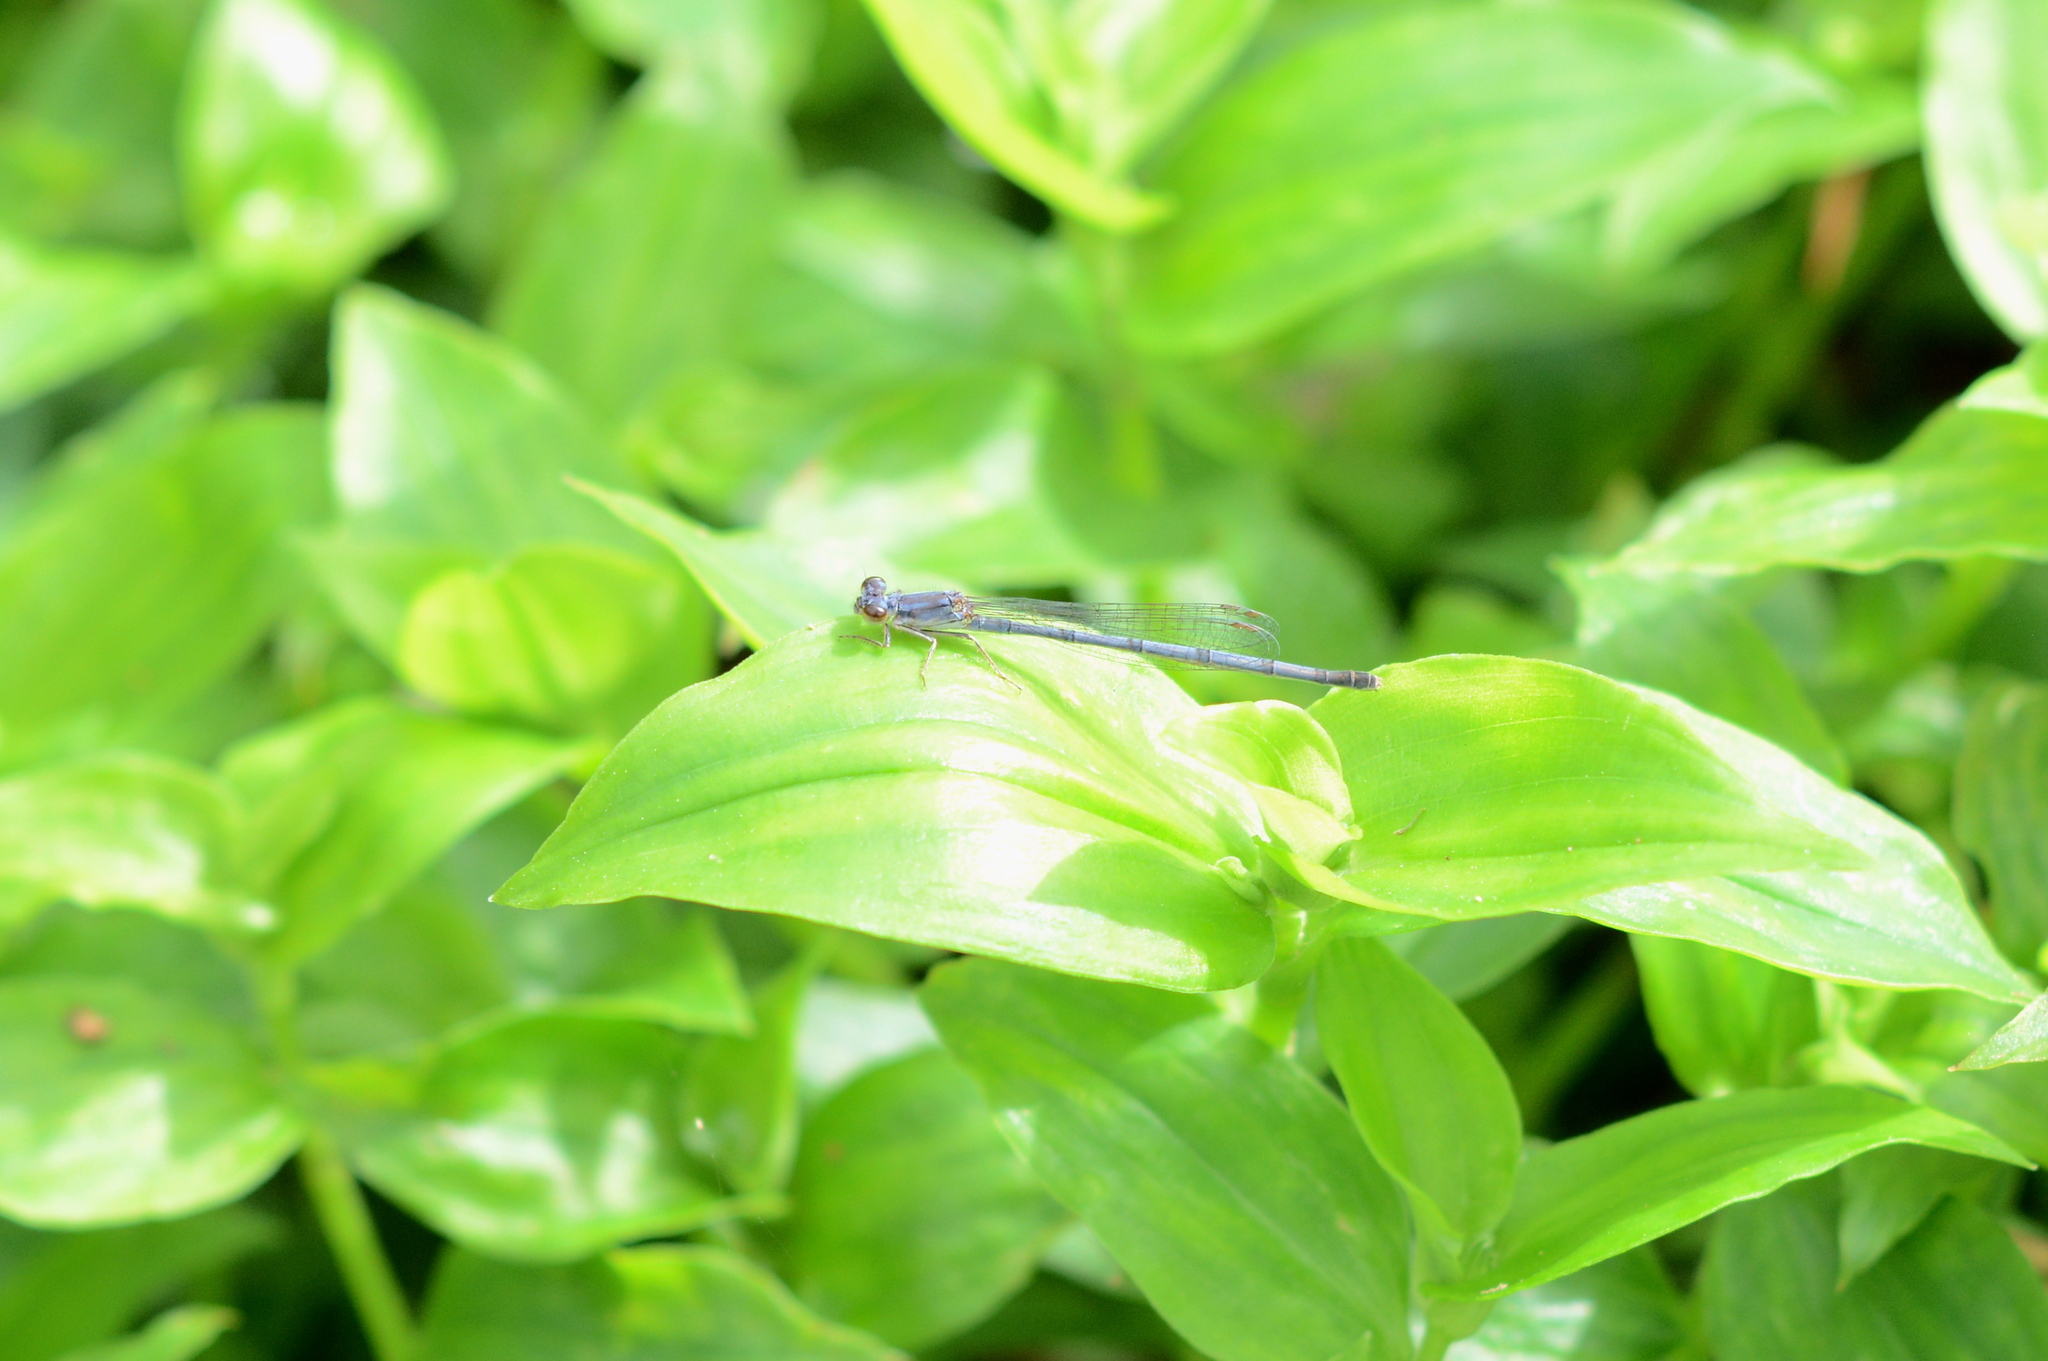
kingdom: Animalia
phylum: Arthropoda
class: Insecta
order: Odonata
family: Coenagrionidae
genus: Ischnura
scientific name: Ischnura posita
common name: Fragile forktail
